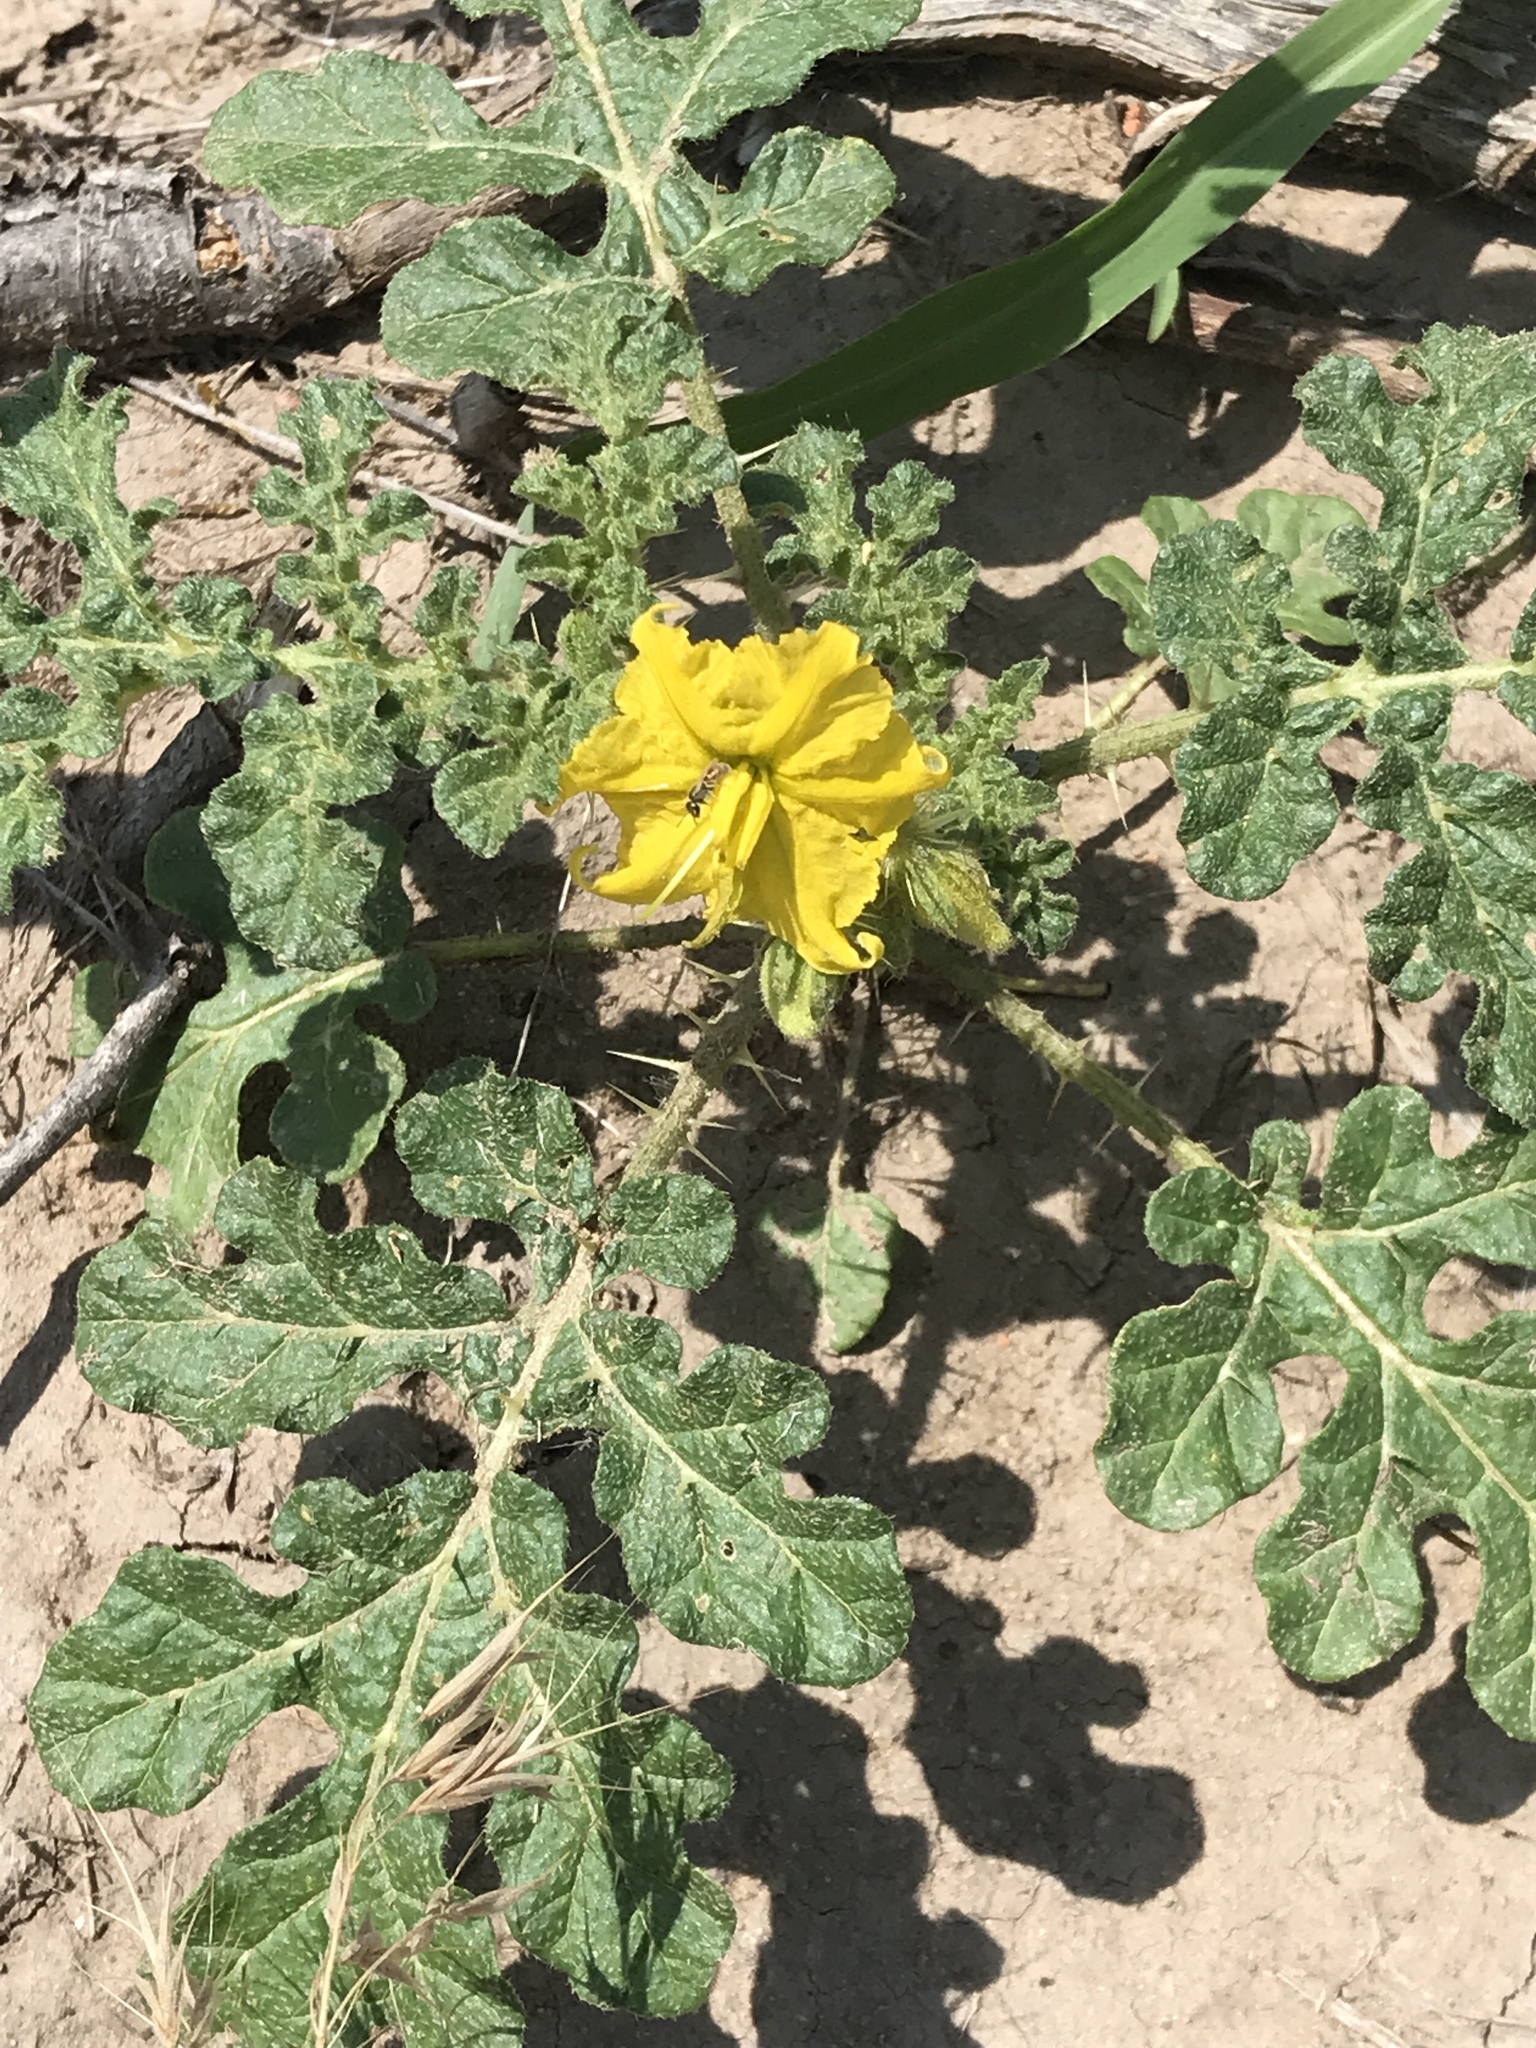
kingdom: Plantae
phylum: Tracheophyta
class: Magnoliopsida
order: Solanales
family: Solanaceae
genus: Solanum
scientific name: Solanum angustifolium
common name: Buffalobur nightshade
